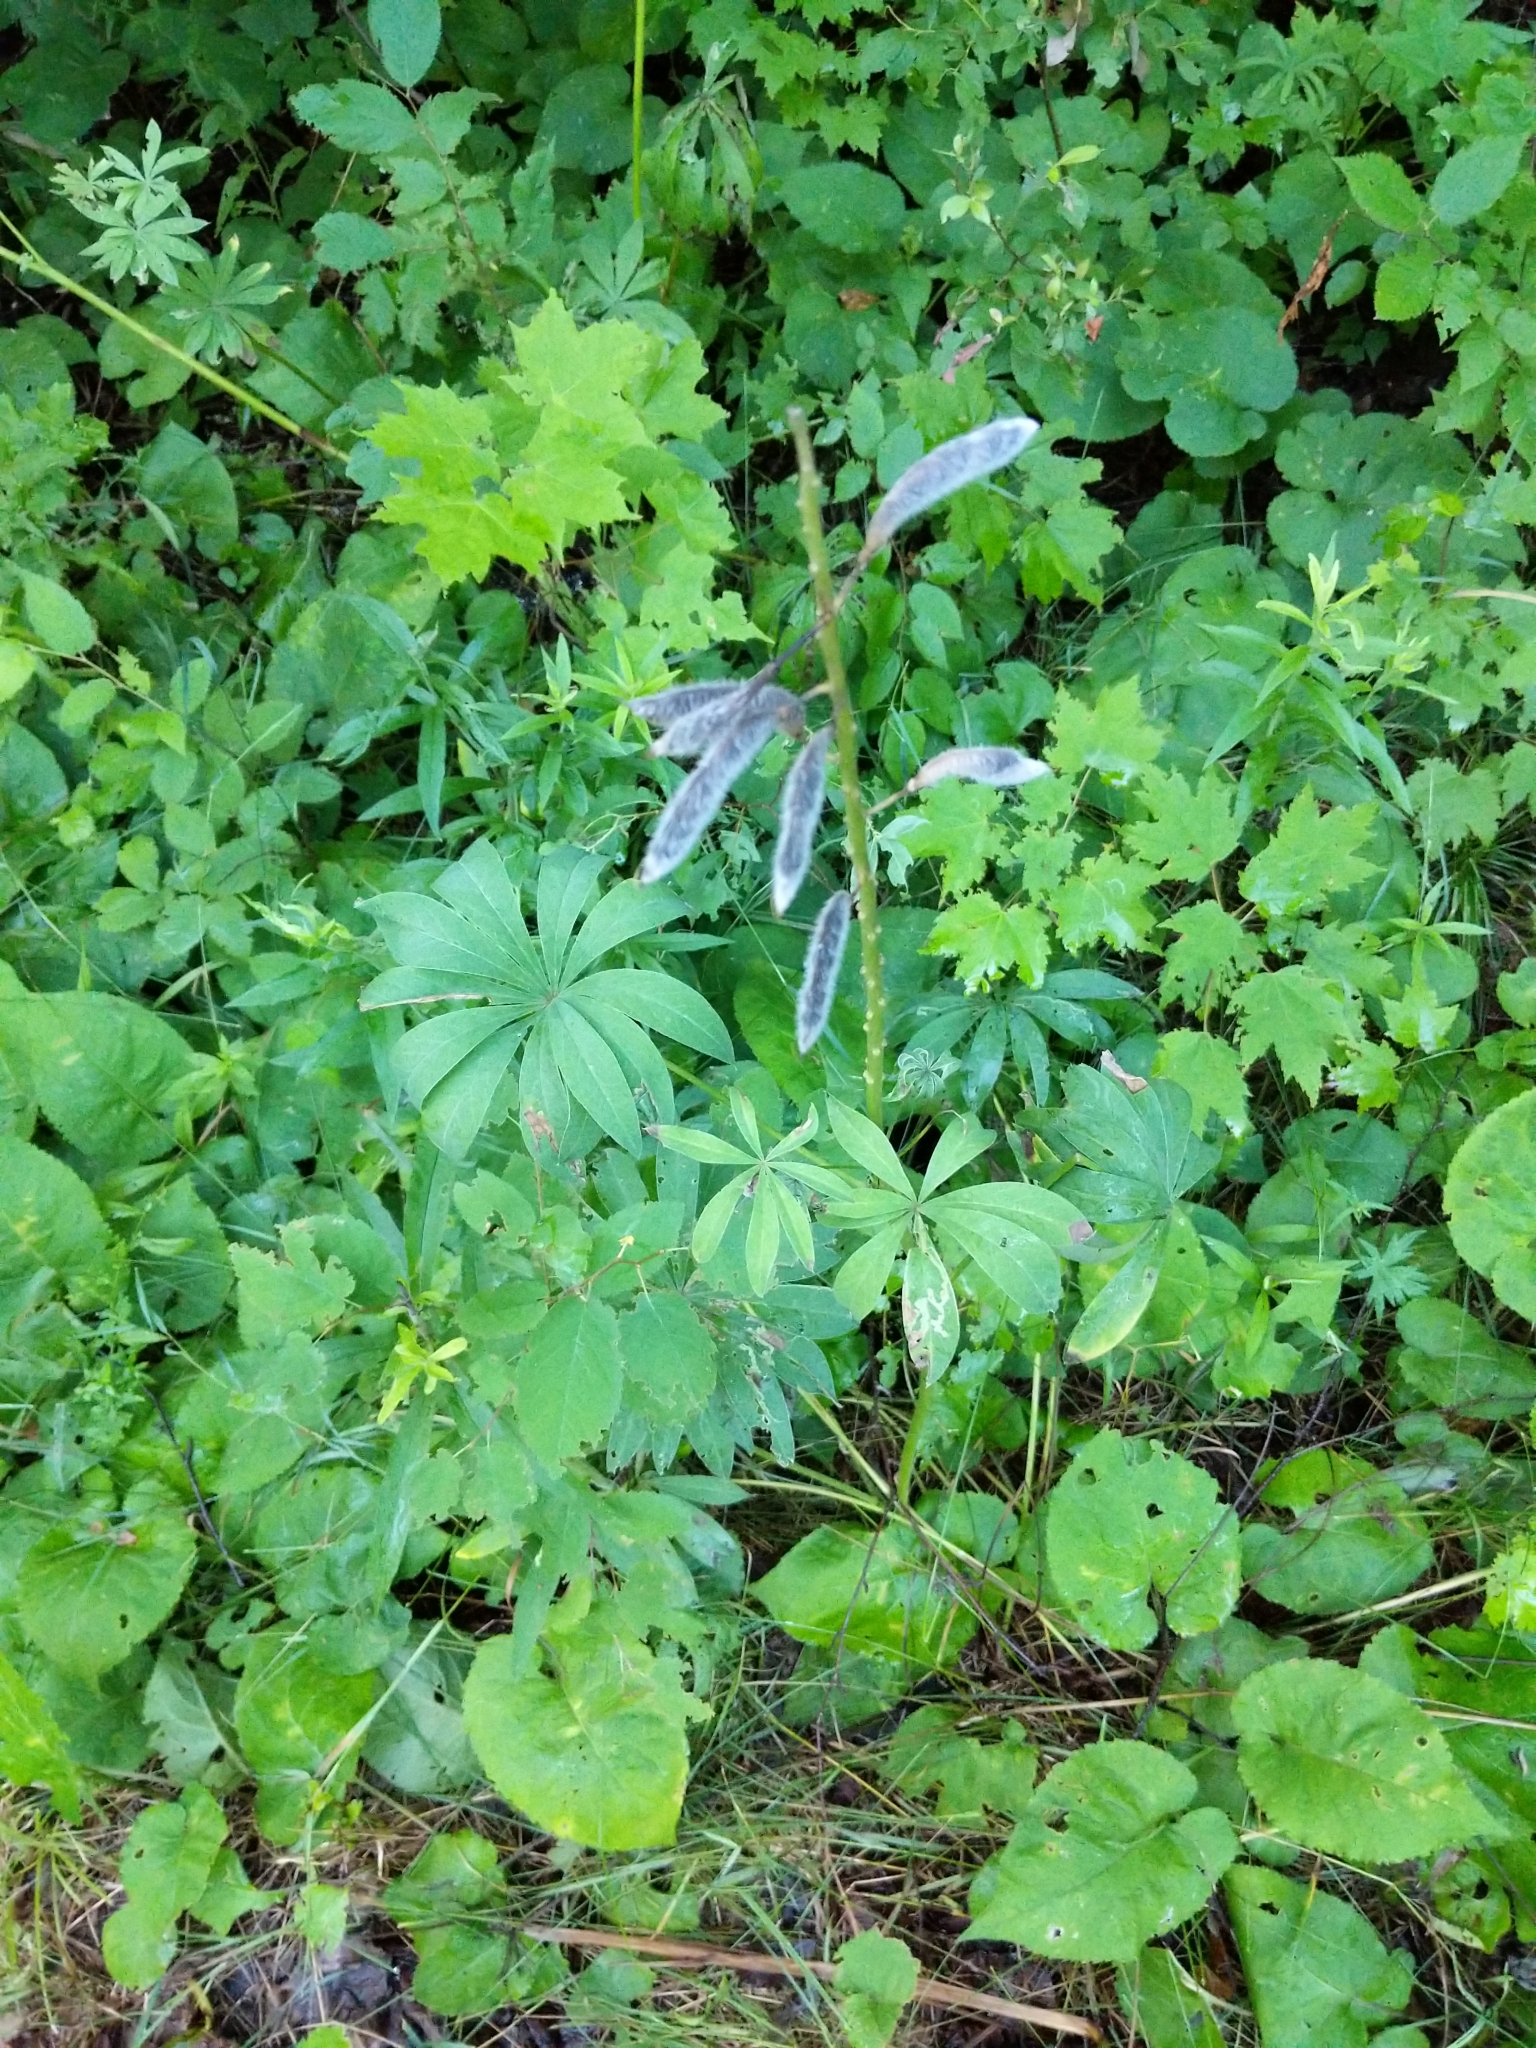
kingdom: Plantae
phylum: Tracheophyta
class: Magnoliopsida
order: Fabales
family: Fabaceae
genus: Lupinus
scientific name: Lupinus polyphyllus
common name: Garden lupin
